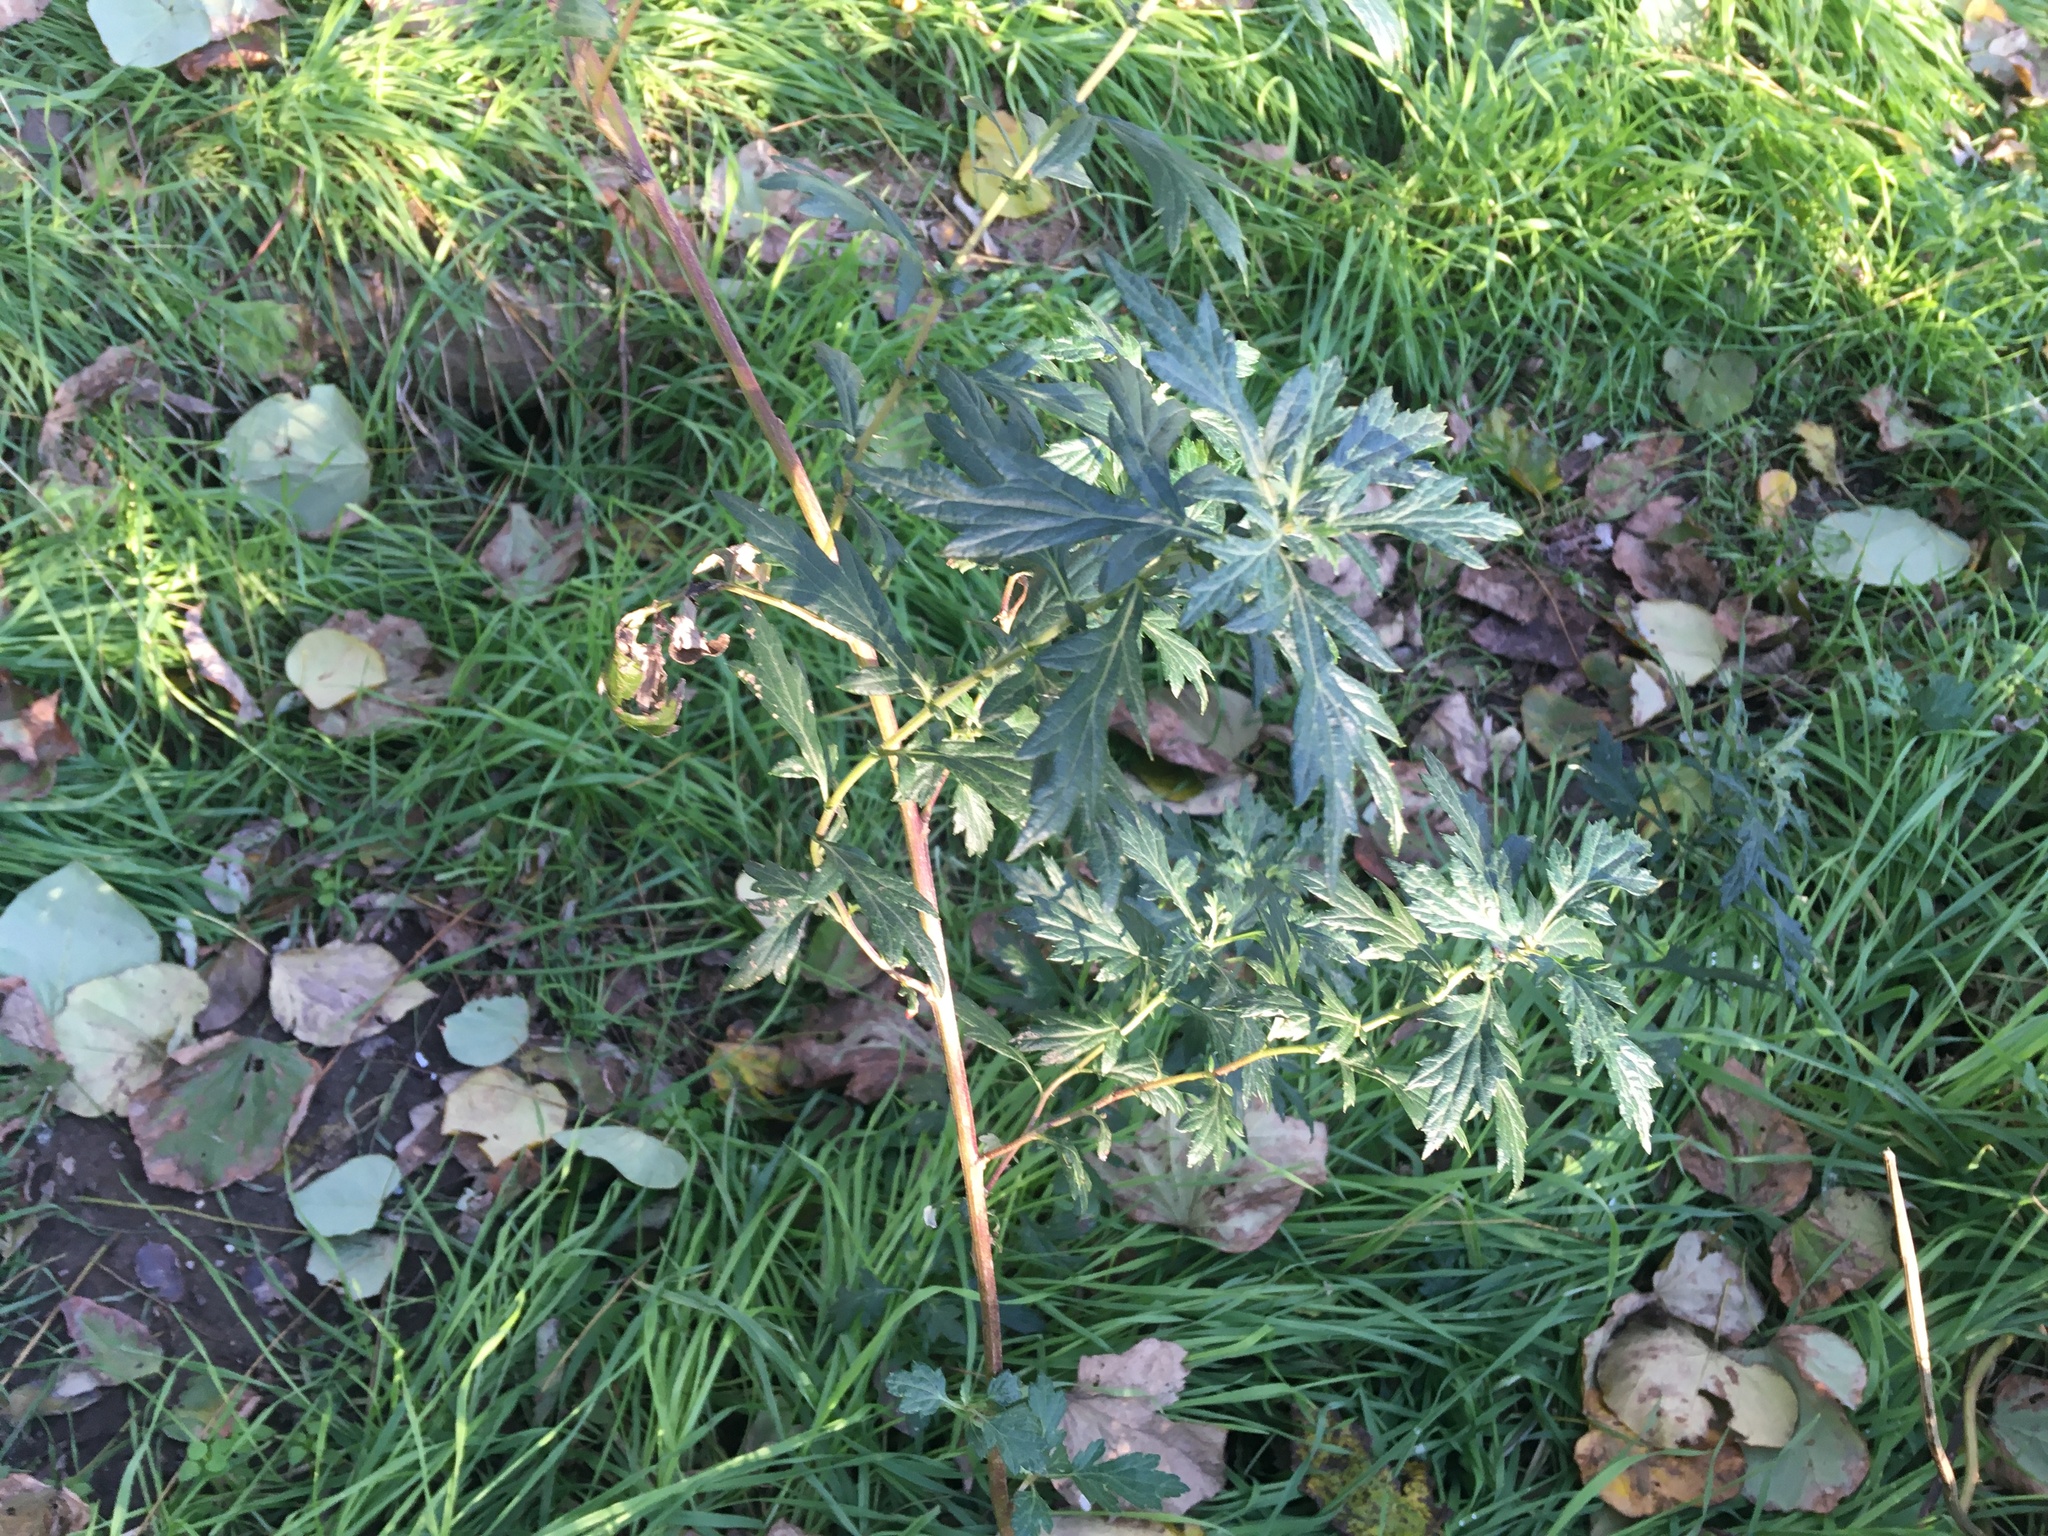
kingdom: Plantae
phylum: Tracheophyta
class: Magnoliopsida
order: Asterales
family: Asteraceae
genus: Artemisia
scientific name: Artemisia vulgaris
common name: Mugwort
